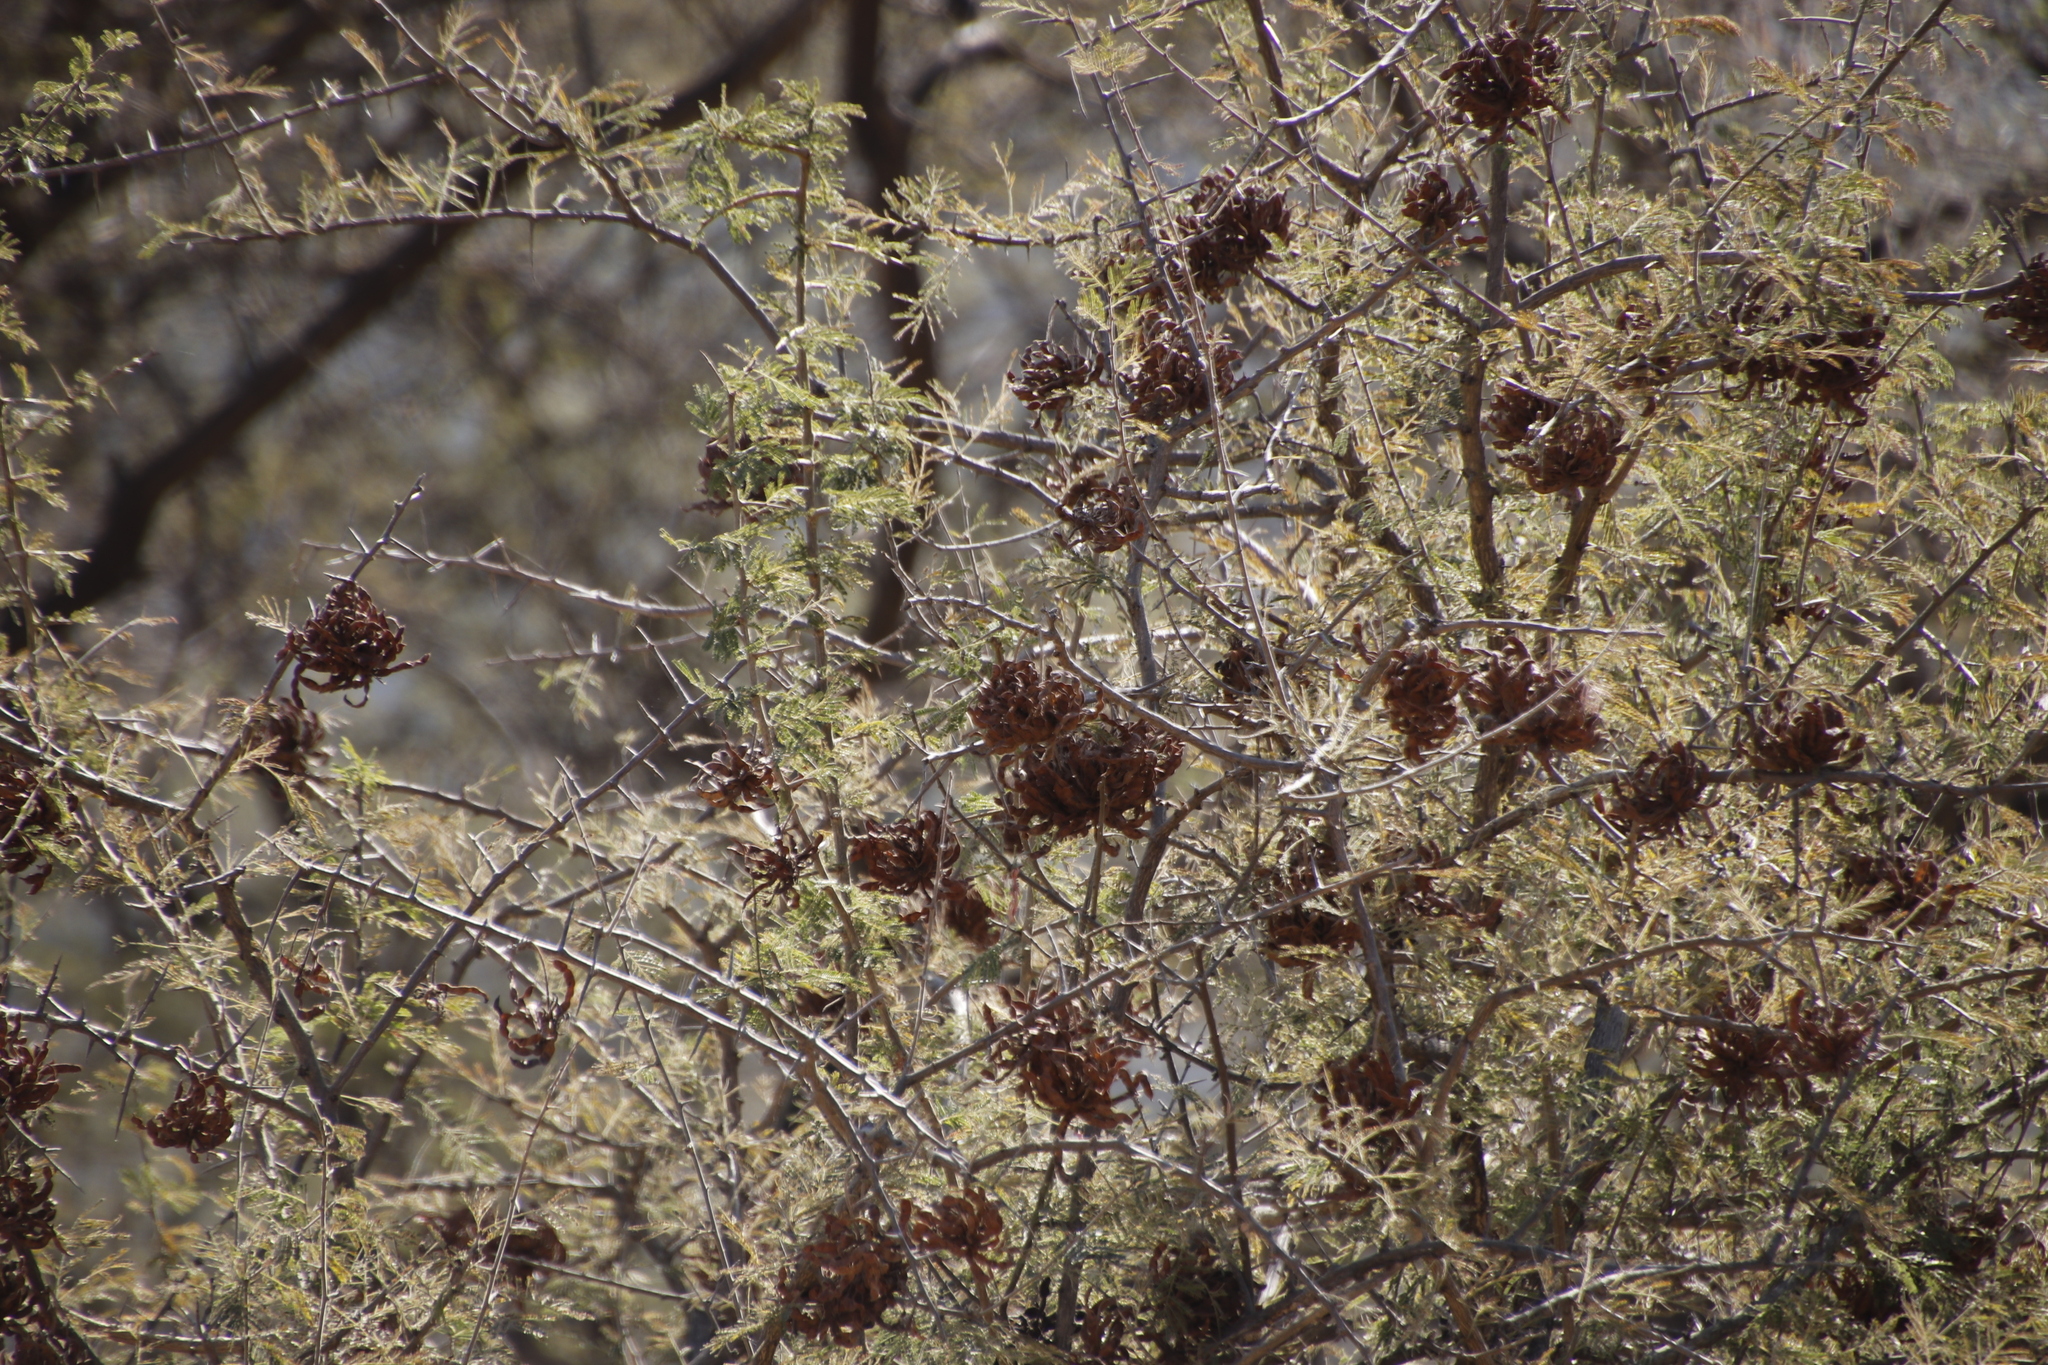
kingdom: Plantae
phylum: Tracheophyta
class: Magnoliopsida
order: Fabales
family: Fabaceae
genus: Dichrostachys
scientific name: Dichrostachys cinerea
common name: Sicklebush
